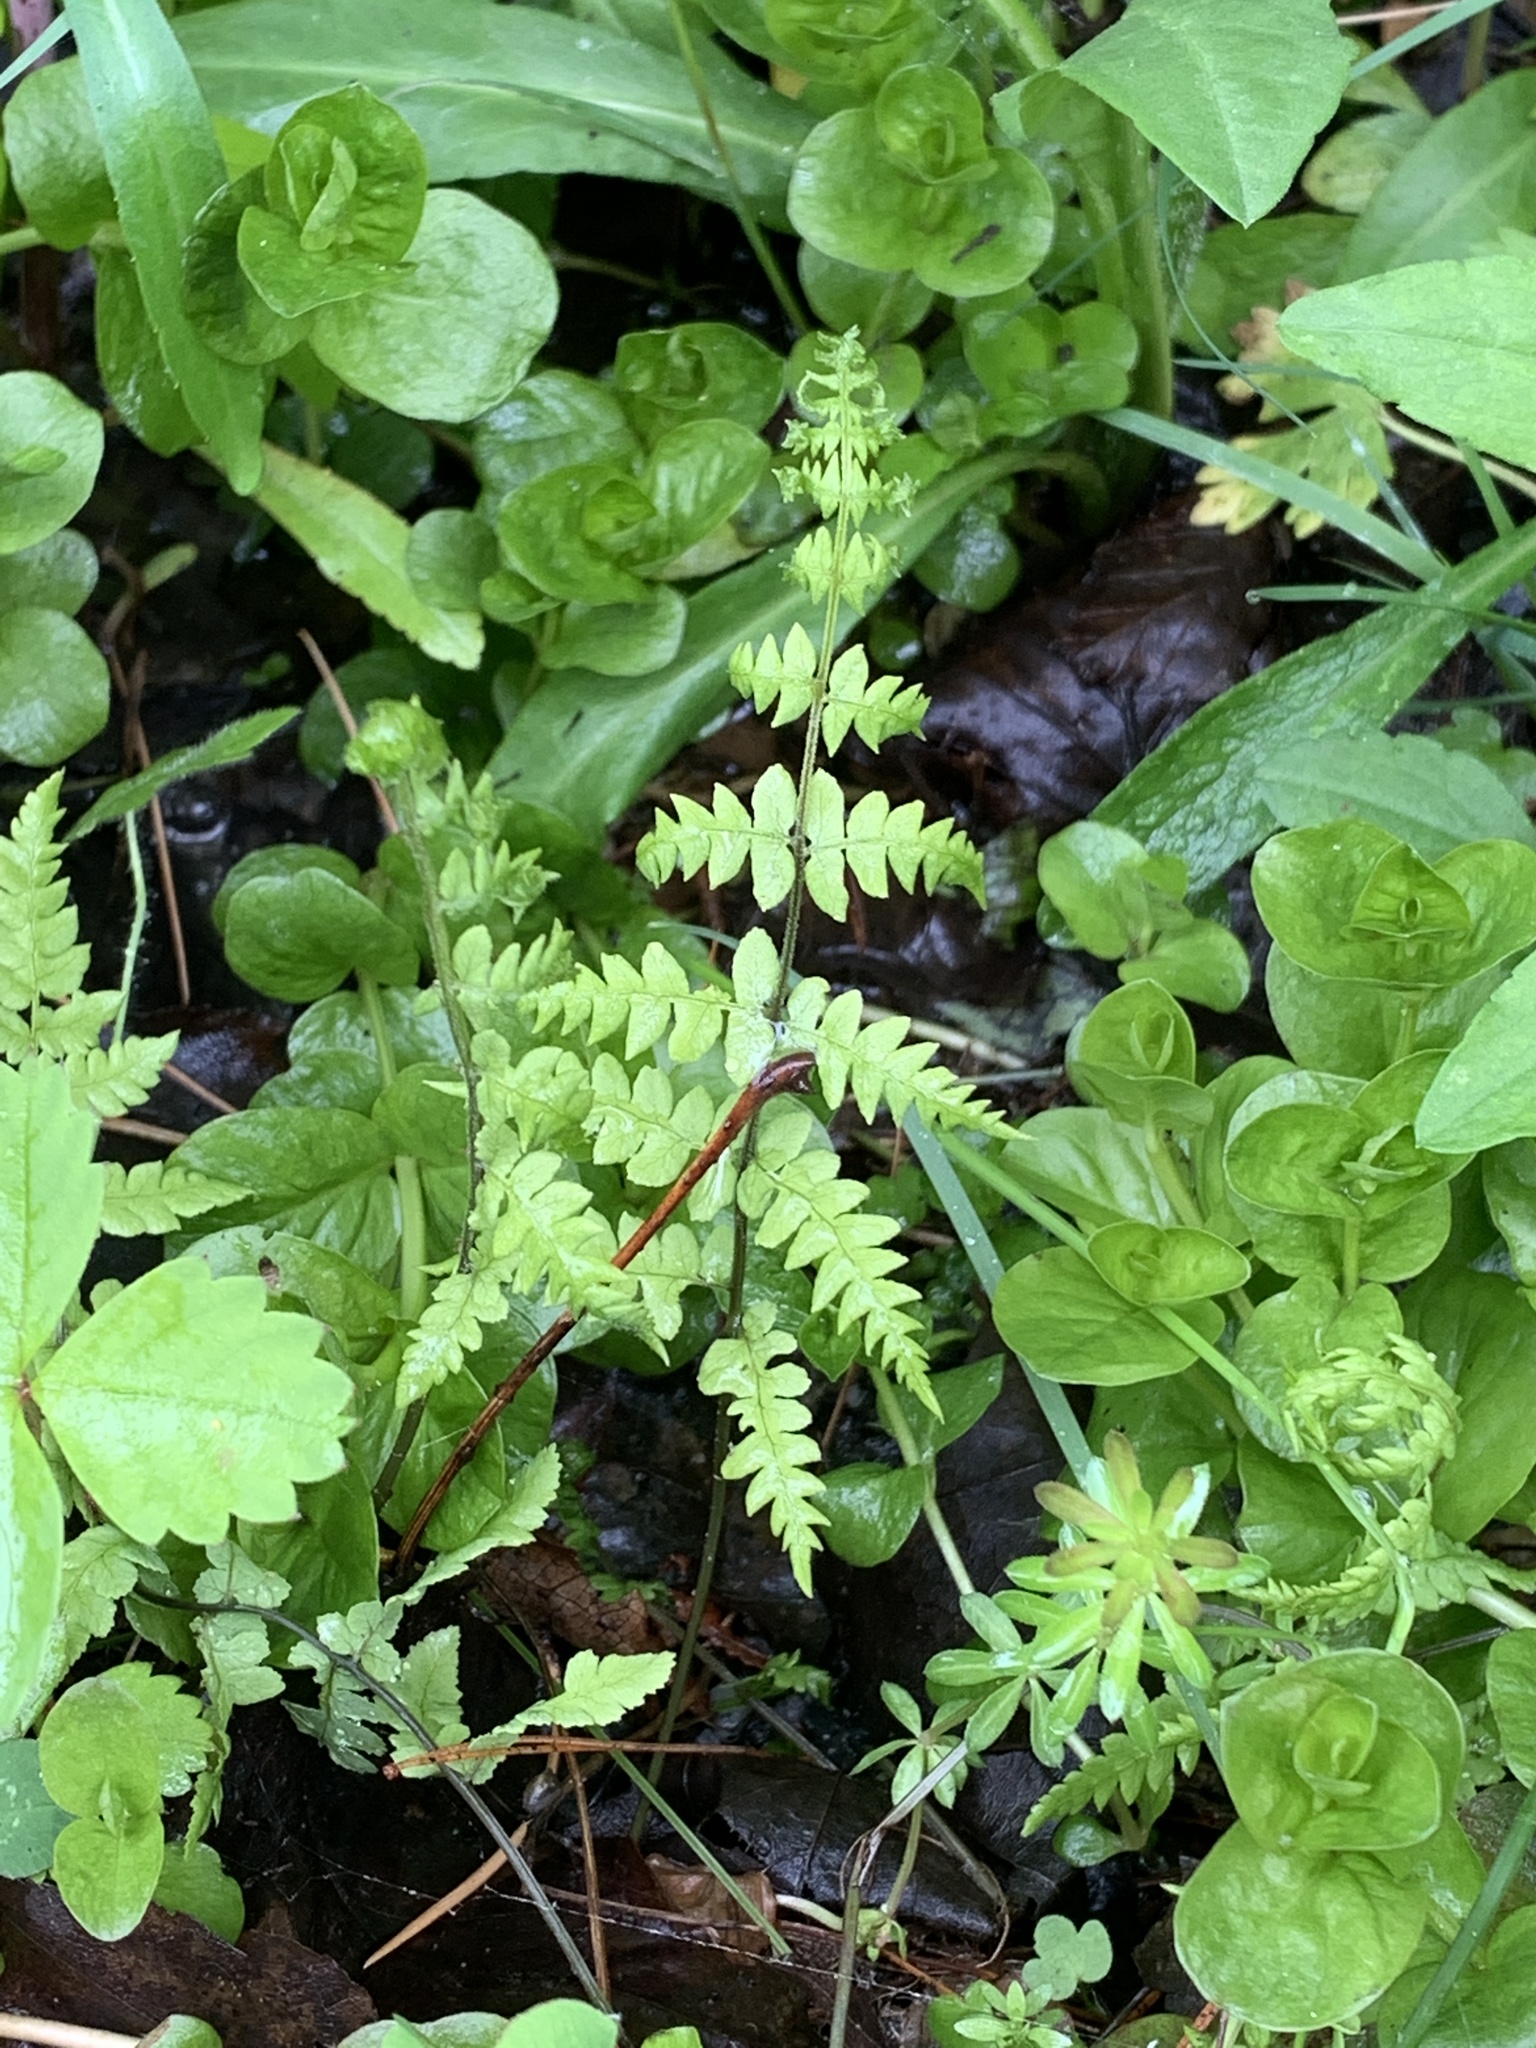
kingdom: Plantae
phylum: Tracheophyta
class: Polypodiopsida
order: Polypodiales
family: Thelypteridaceae
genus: Thelypteris
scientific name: Thelypteris palustris
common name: Marsh fern
